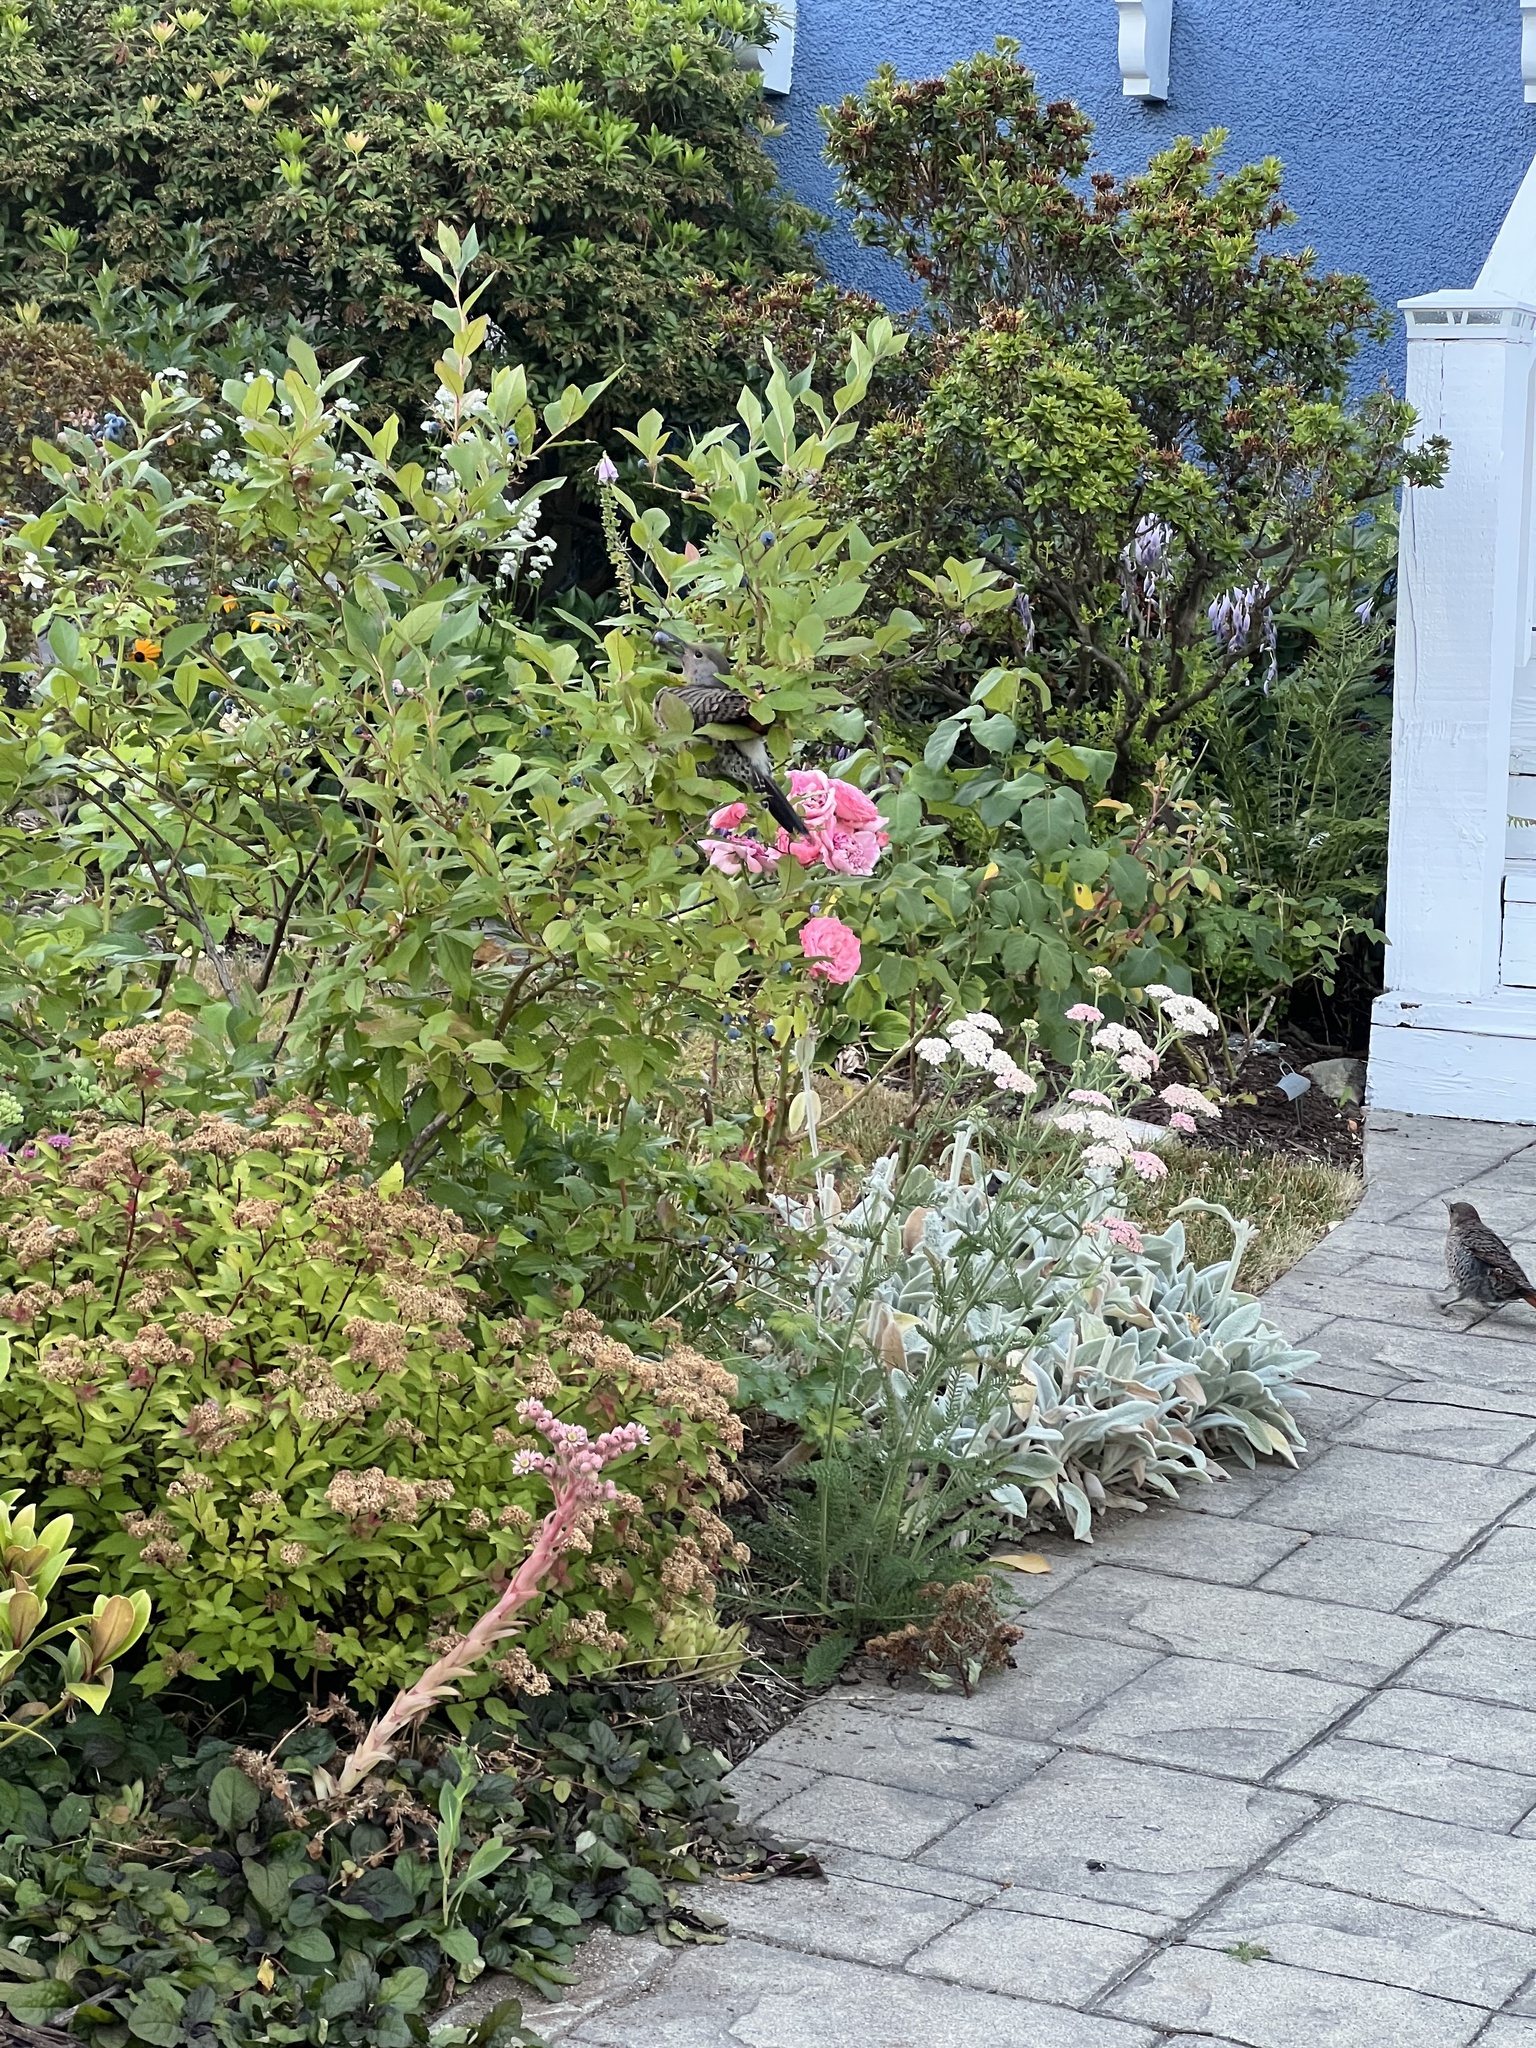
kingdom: Animalia
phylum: Chordata
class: Aves
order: Piciformes
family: Picidae
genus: Colaptes
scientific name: Colaptes auratus
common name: Northern flicker
